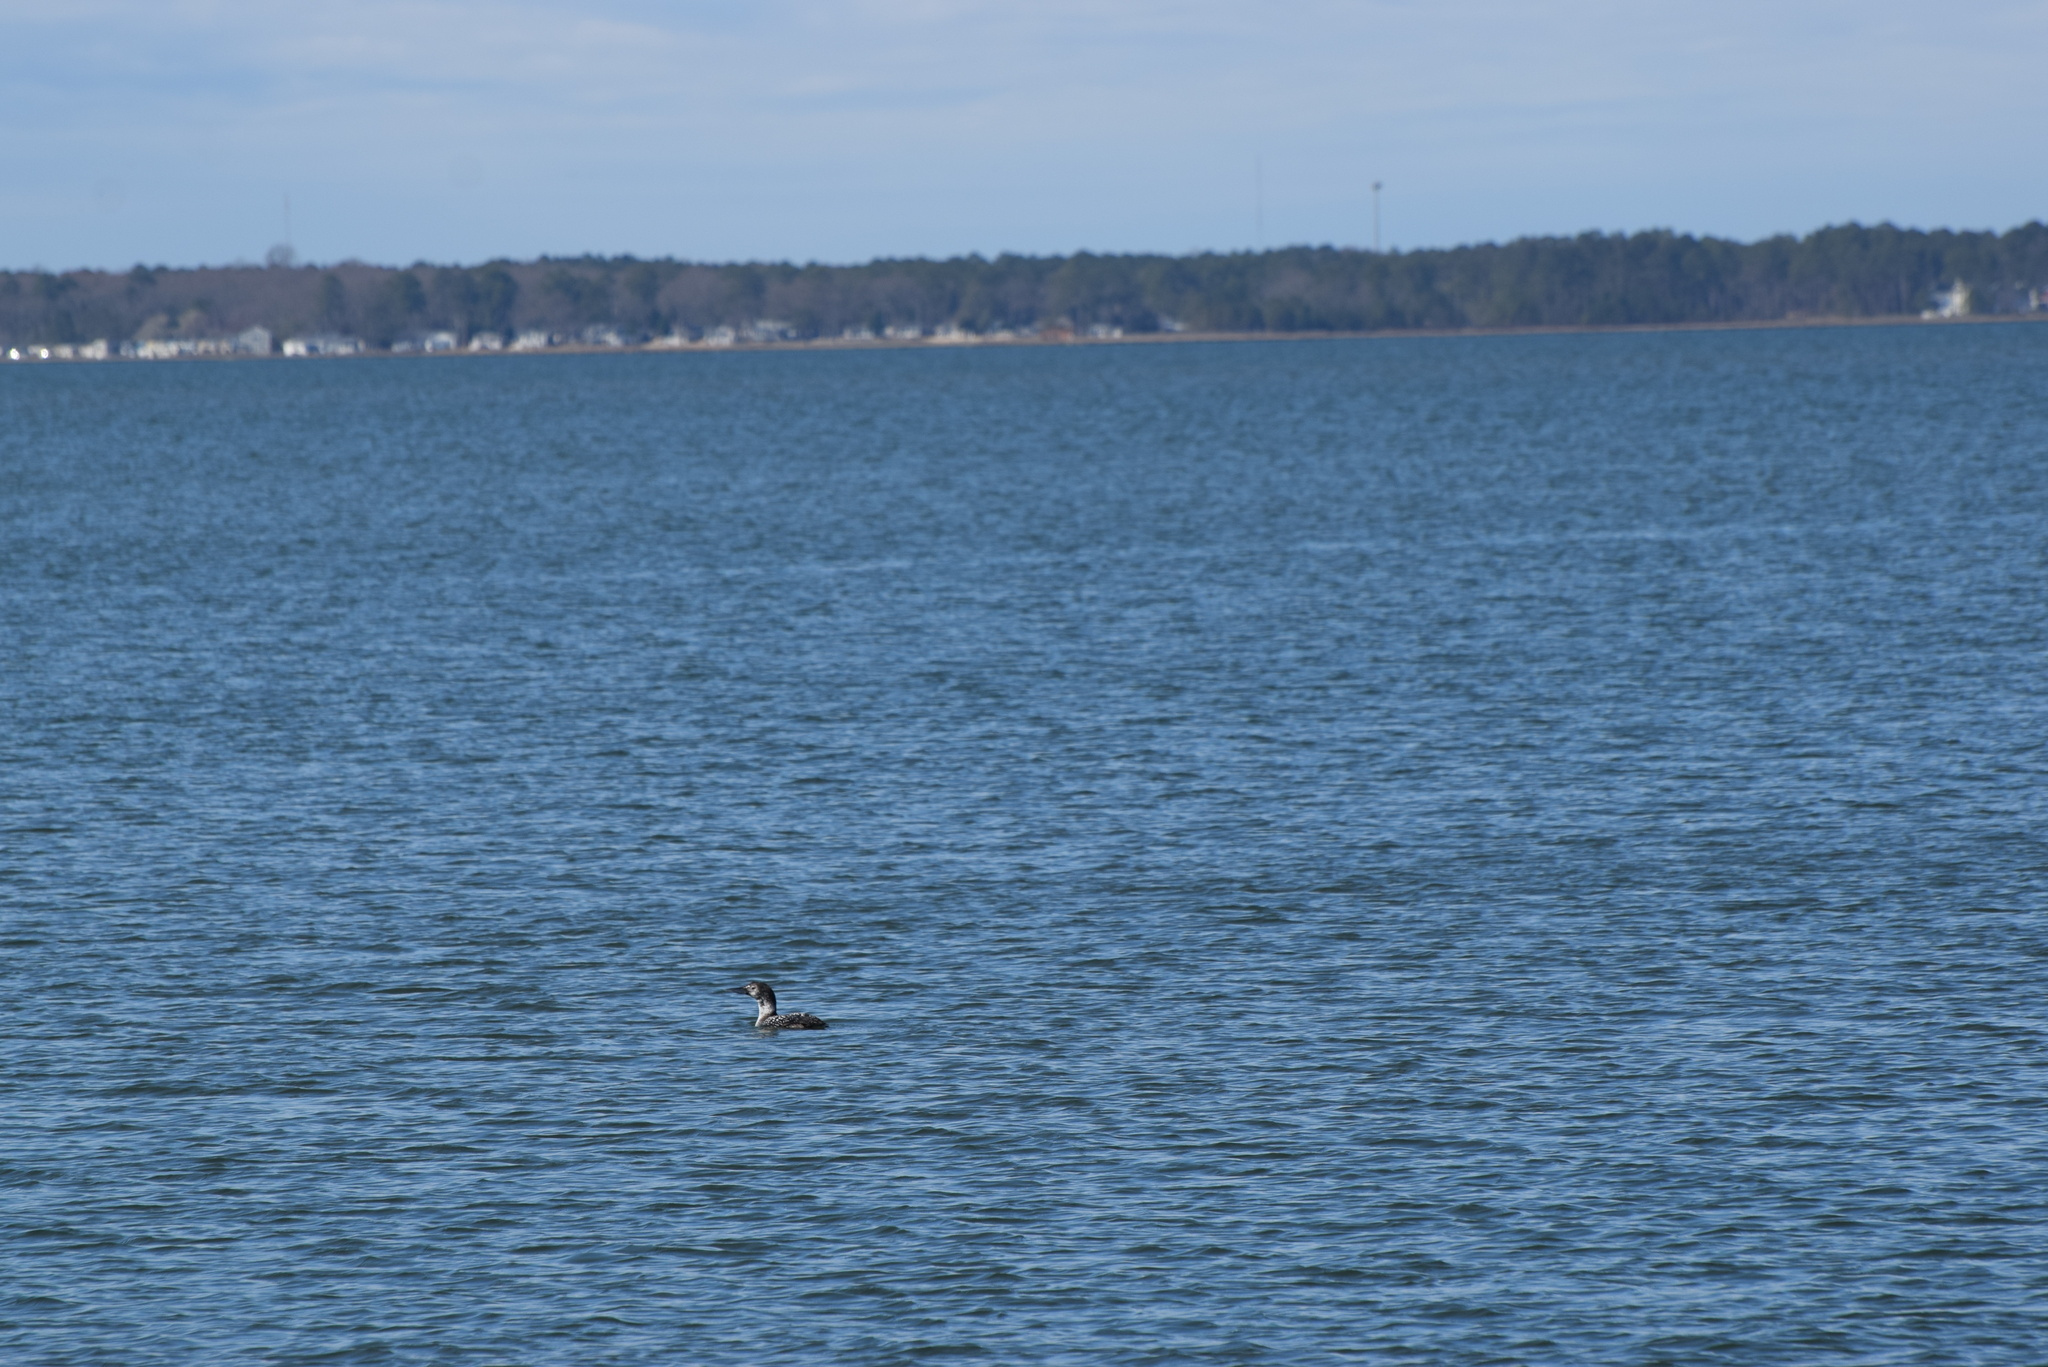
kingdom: Animalia
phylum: Chordata
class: Aves
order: Gaviiformes
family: Gaviidae
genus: Gavia
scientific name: Gavia immer
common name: Common loon
